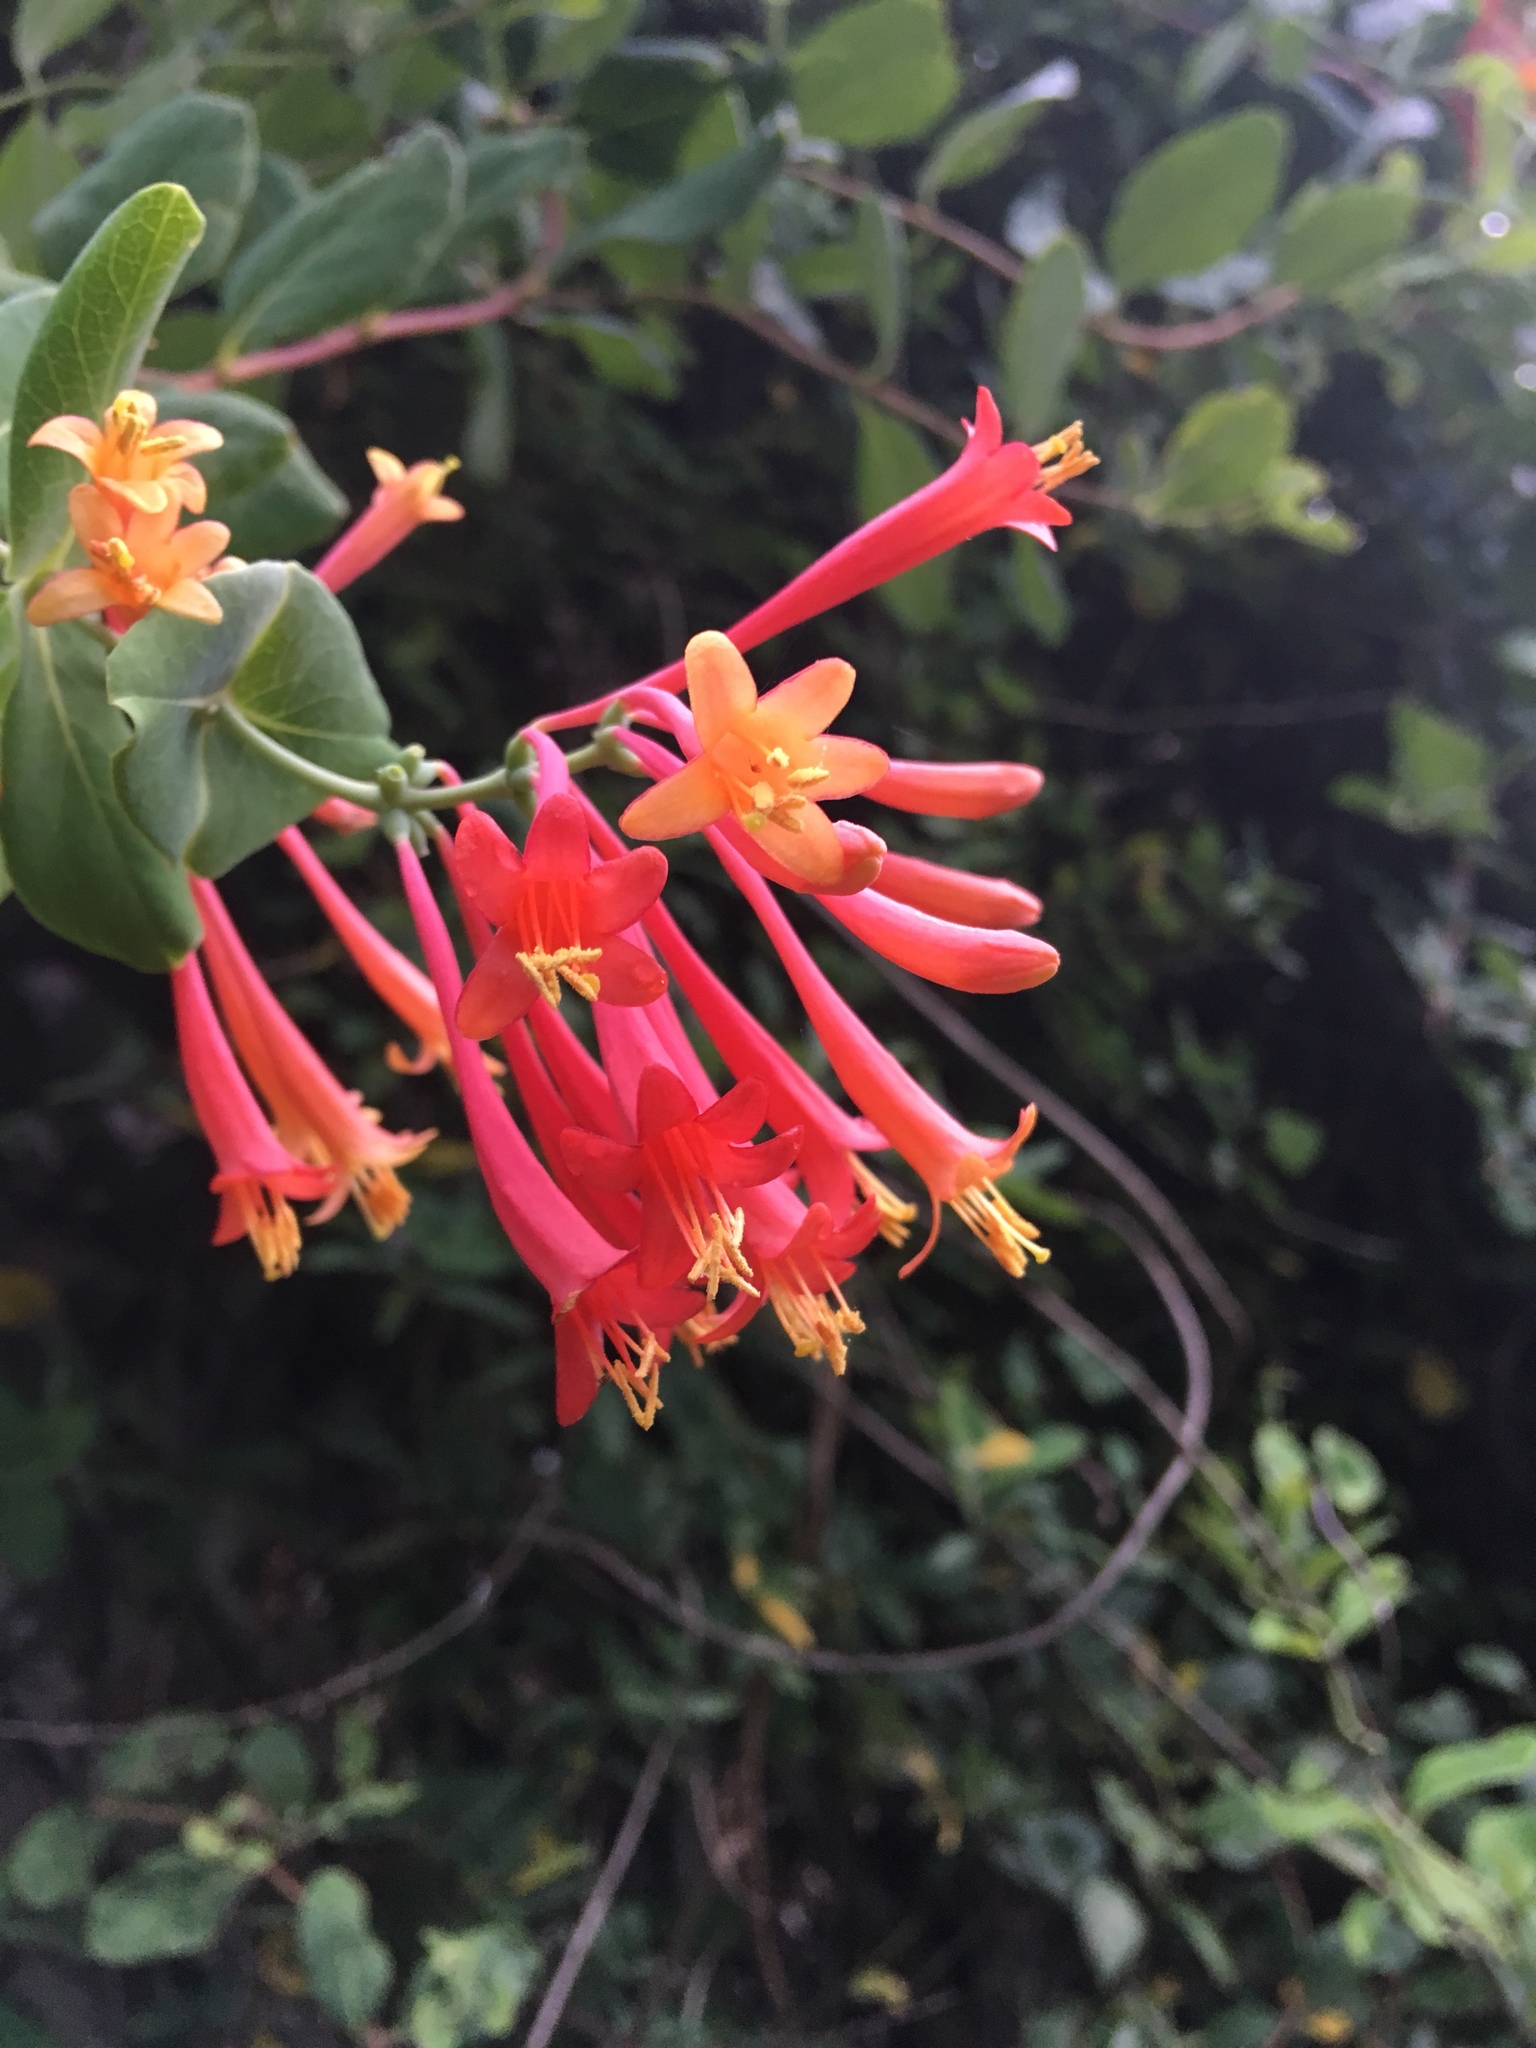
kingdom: Plantae
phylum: Tracheophyta
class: Magnoliopsida
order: Dipsacales
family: Caprifoliaceae
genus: Lonicera
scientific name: Lonicera sempervirens
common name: Coral honeysuckle
